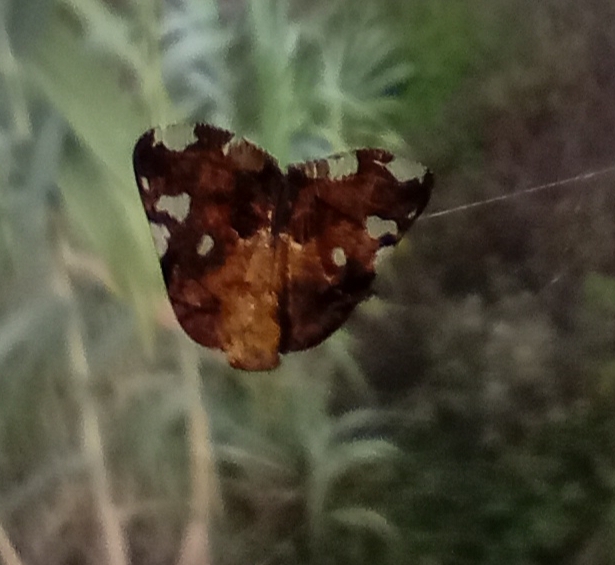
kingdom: Animalia
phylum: Arthropoda
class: Insecta
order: Hemiptera
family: Ricaniidae
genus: Ricania
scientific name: Ricania speculum
